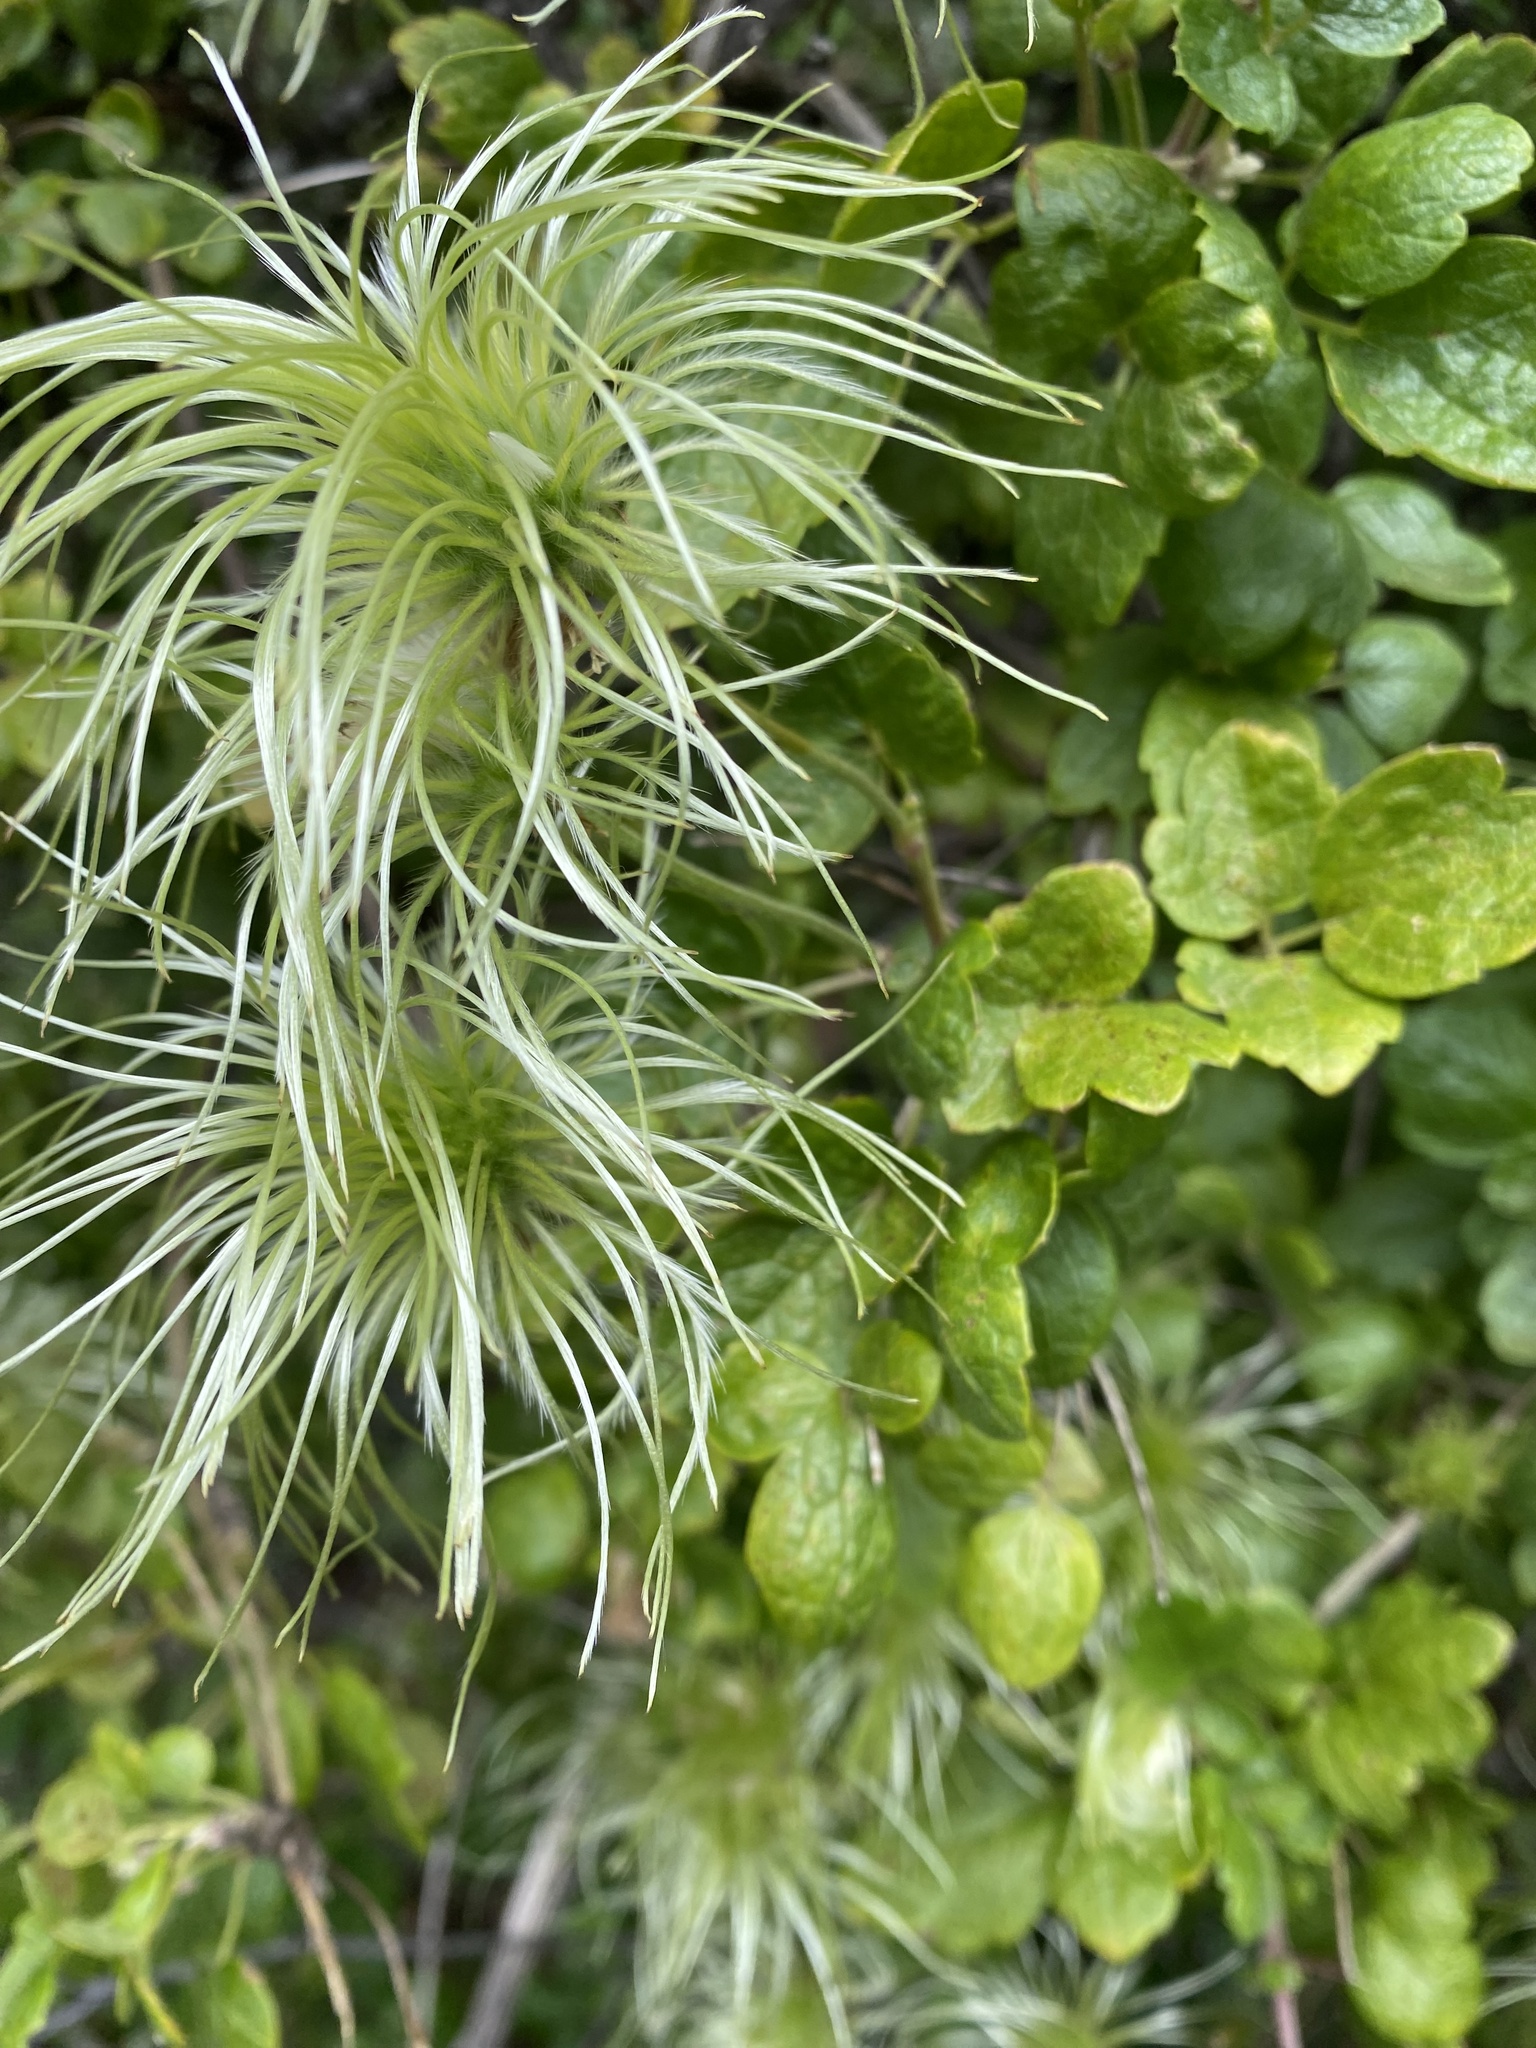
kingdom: Plantae
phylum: Tracheophyta
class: Magnoliopsida
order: Ranunculales
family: Ranunculaceae
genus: Clematis
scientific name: Clematis lasiantha
